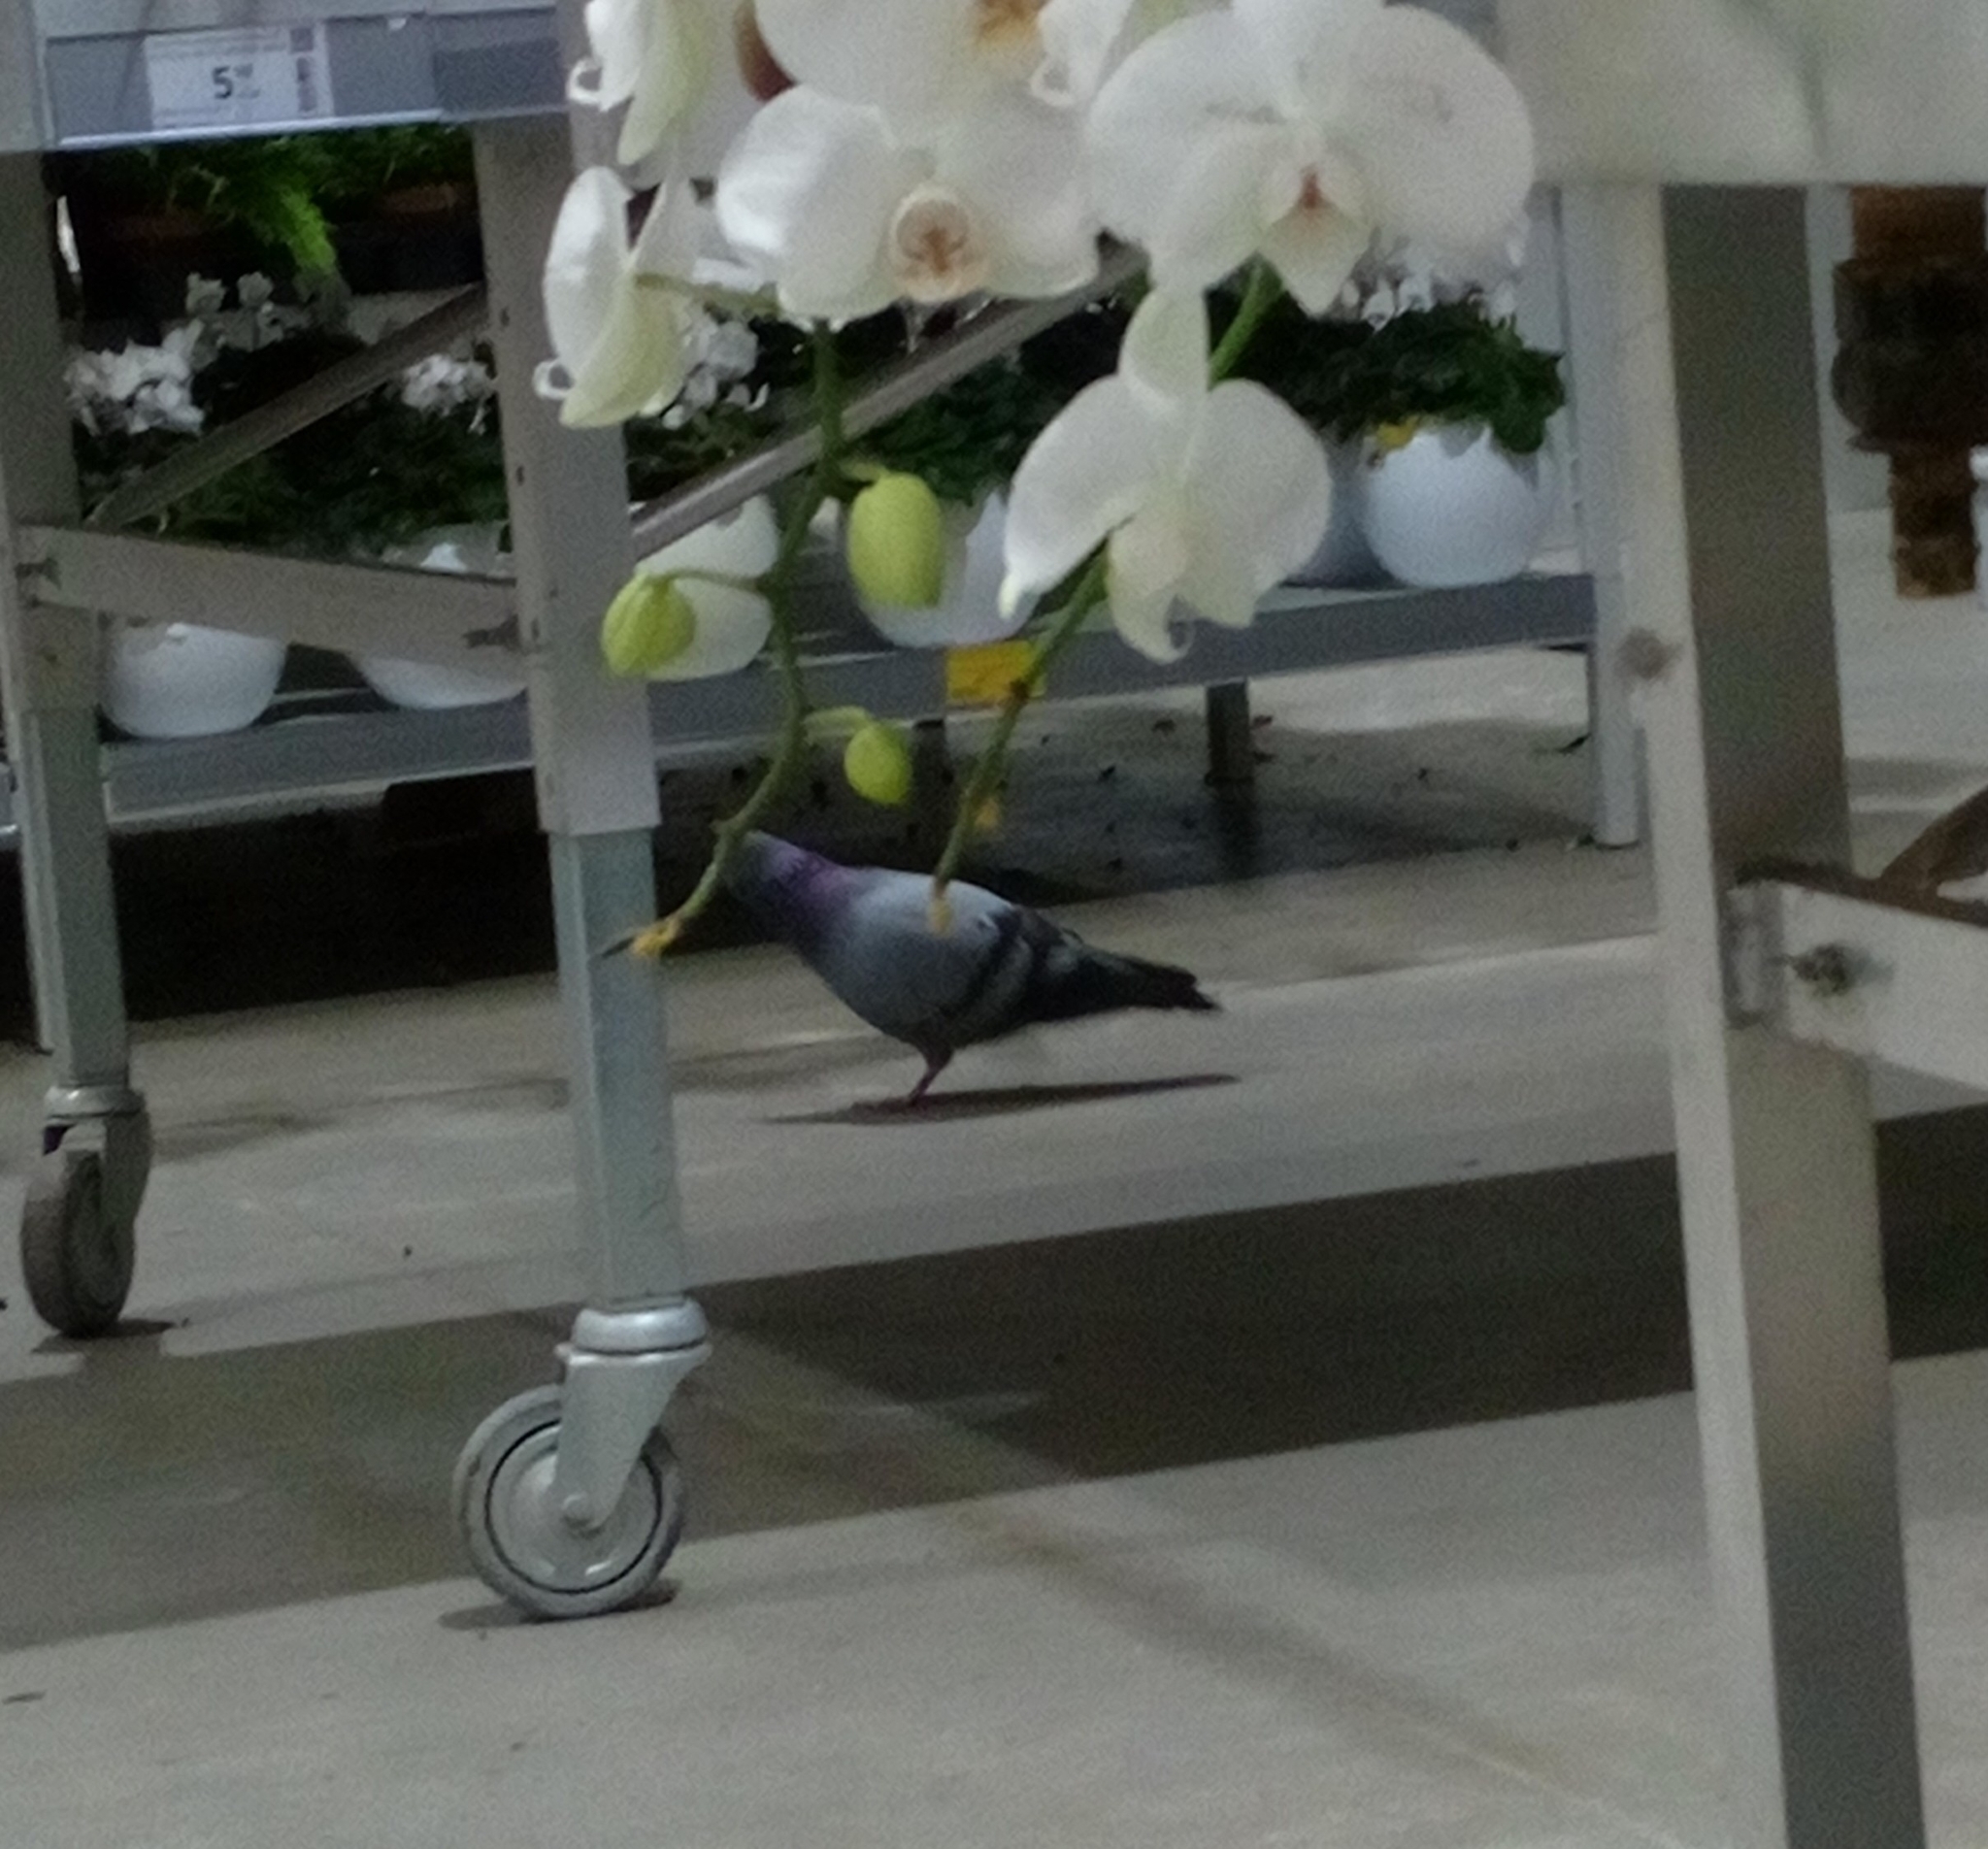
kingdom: Animalia
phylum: Chordata
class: Aves
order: Columbiformes
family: Columbidae
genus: Columba
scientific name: Columba livia
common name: Rock pigeon
